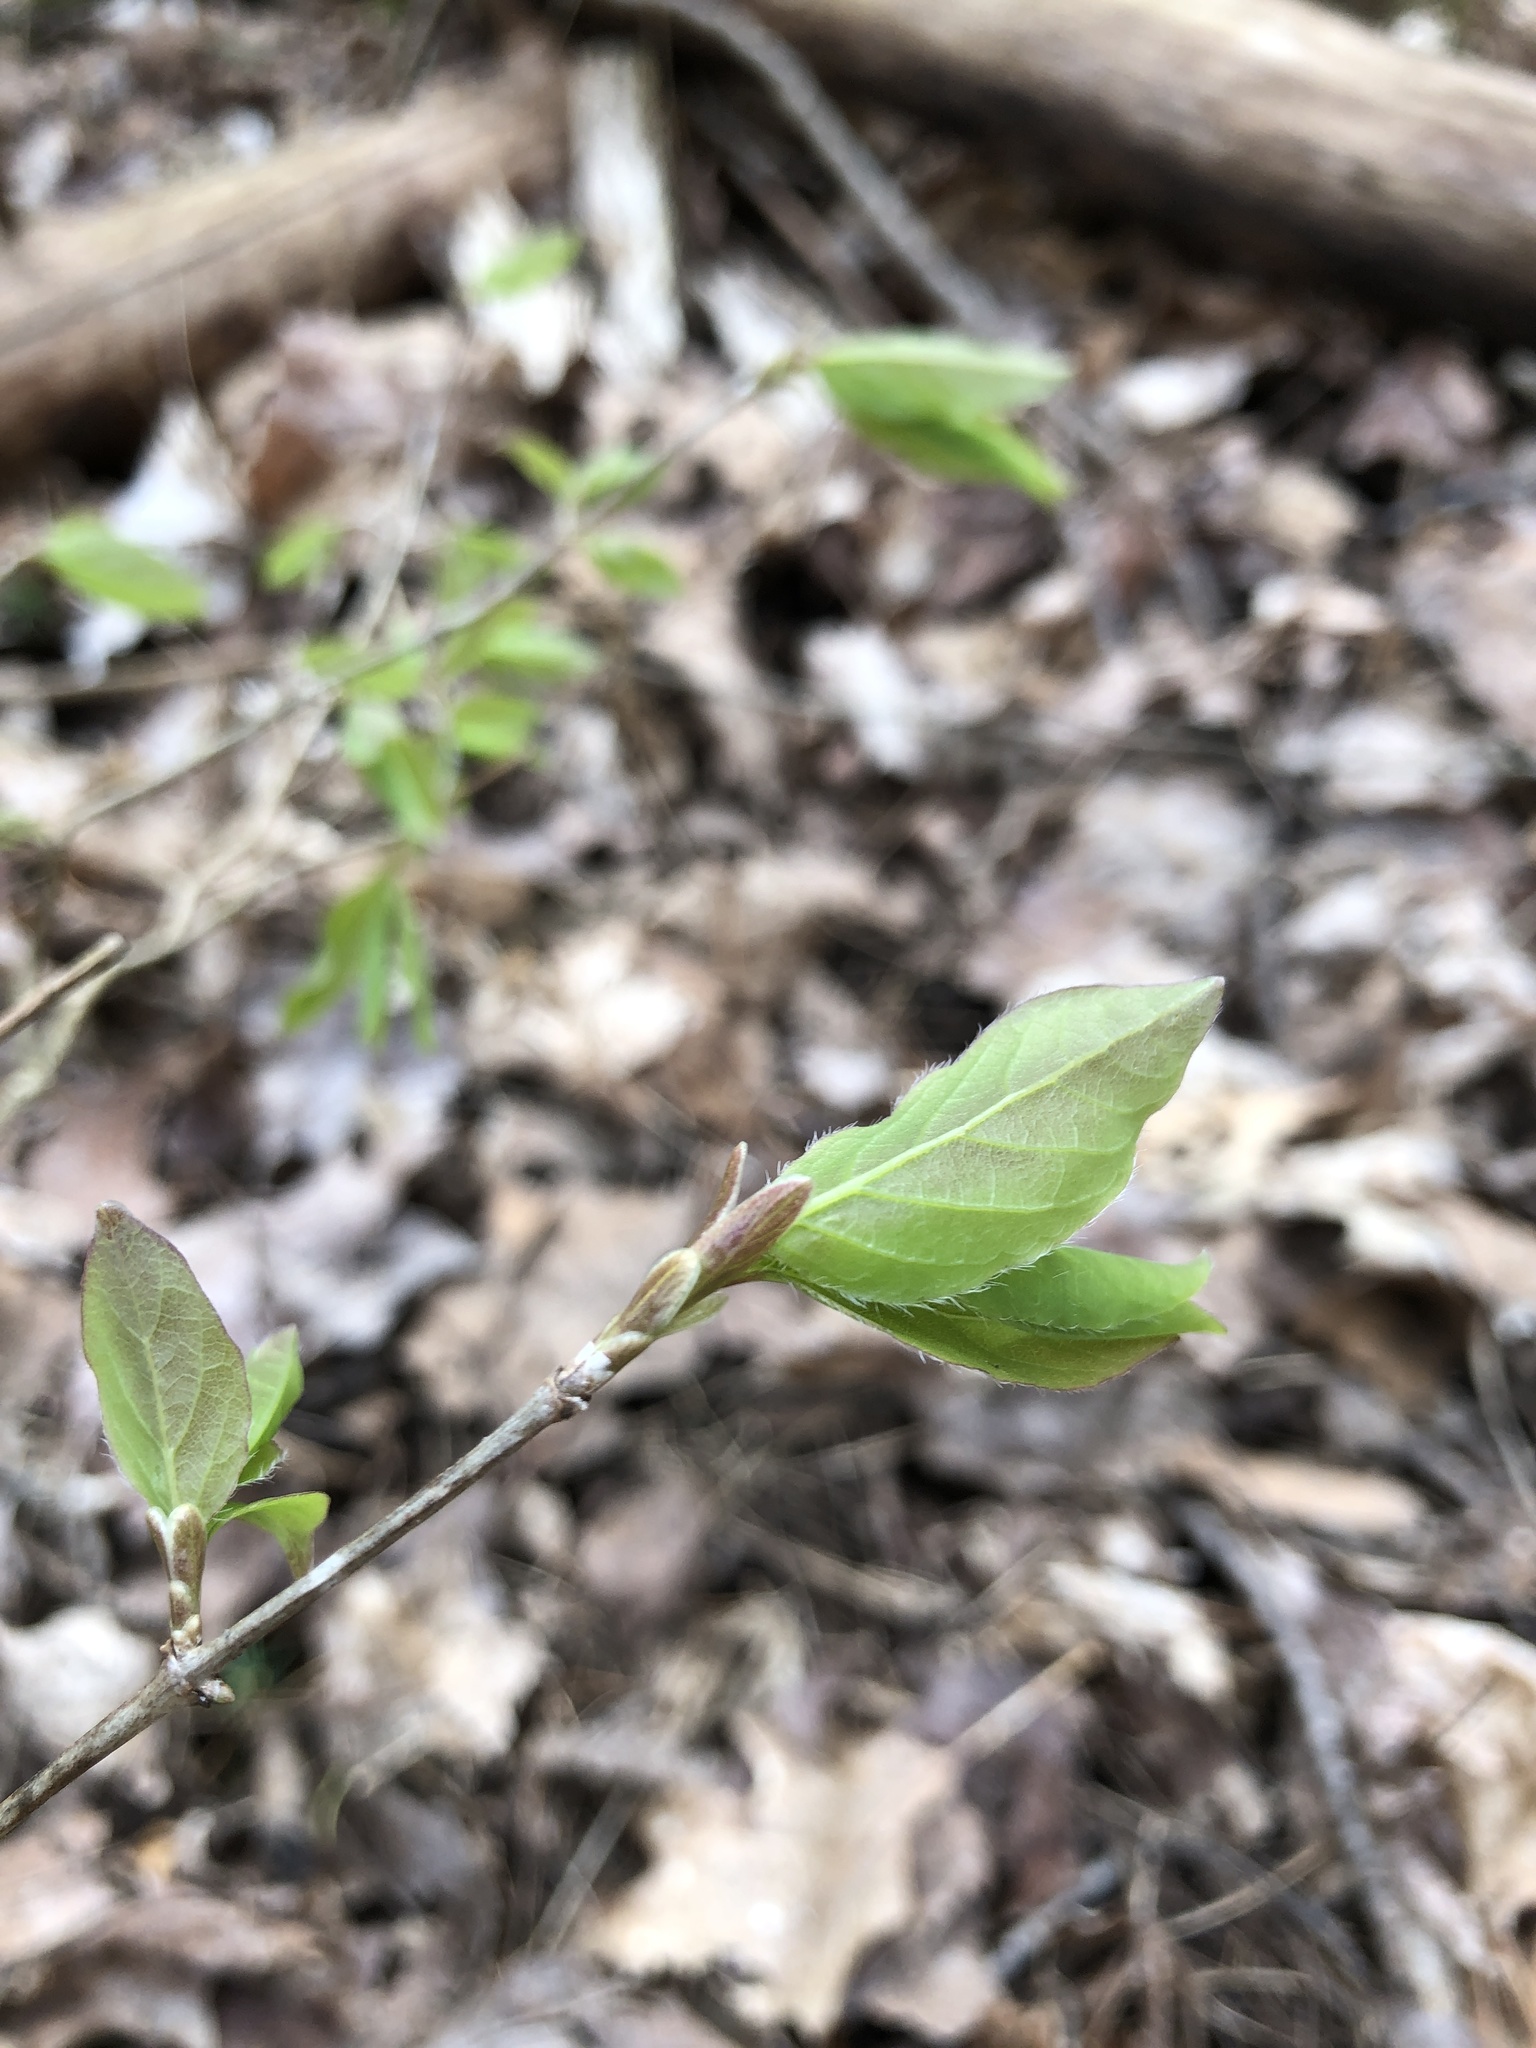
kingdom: Plantae
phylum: Tracheophyta
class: Magnoliopsida
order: Dipsacales
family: Caprifoliaceae
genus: Lonicera
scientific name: Lonicera canadensis
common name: American fly-honeysuckle
